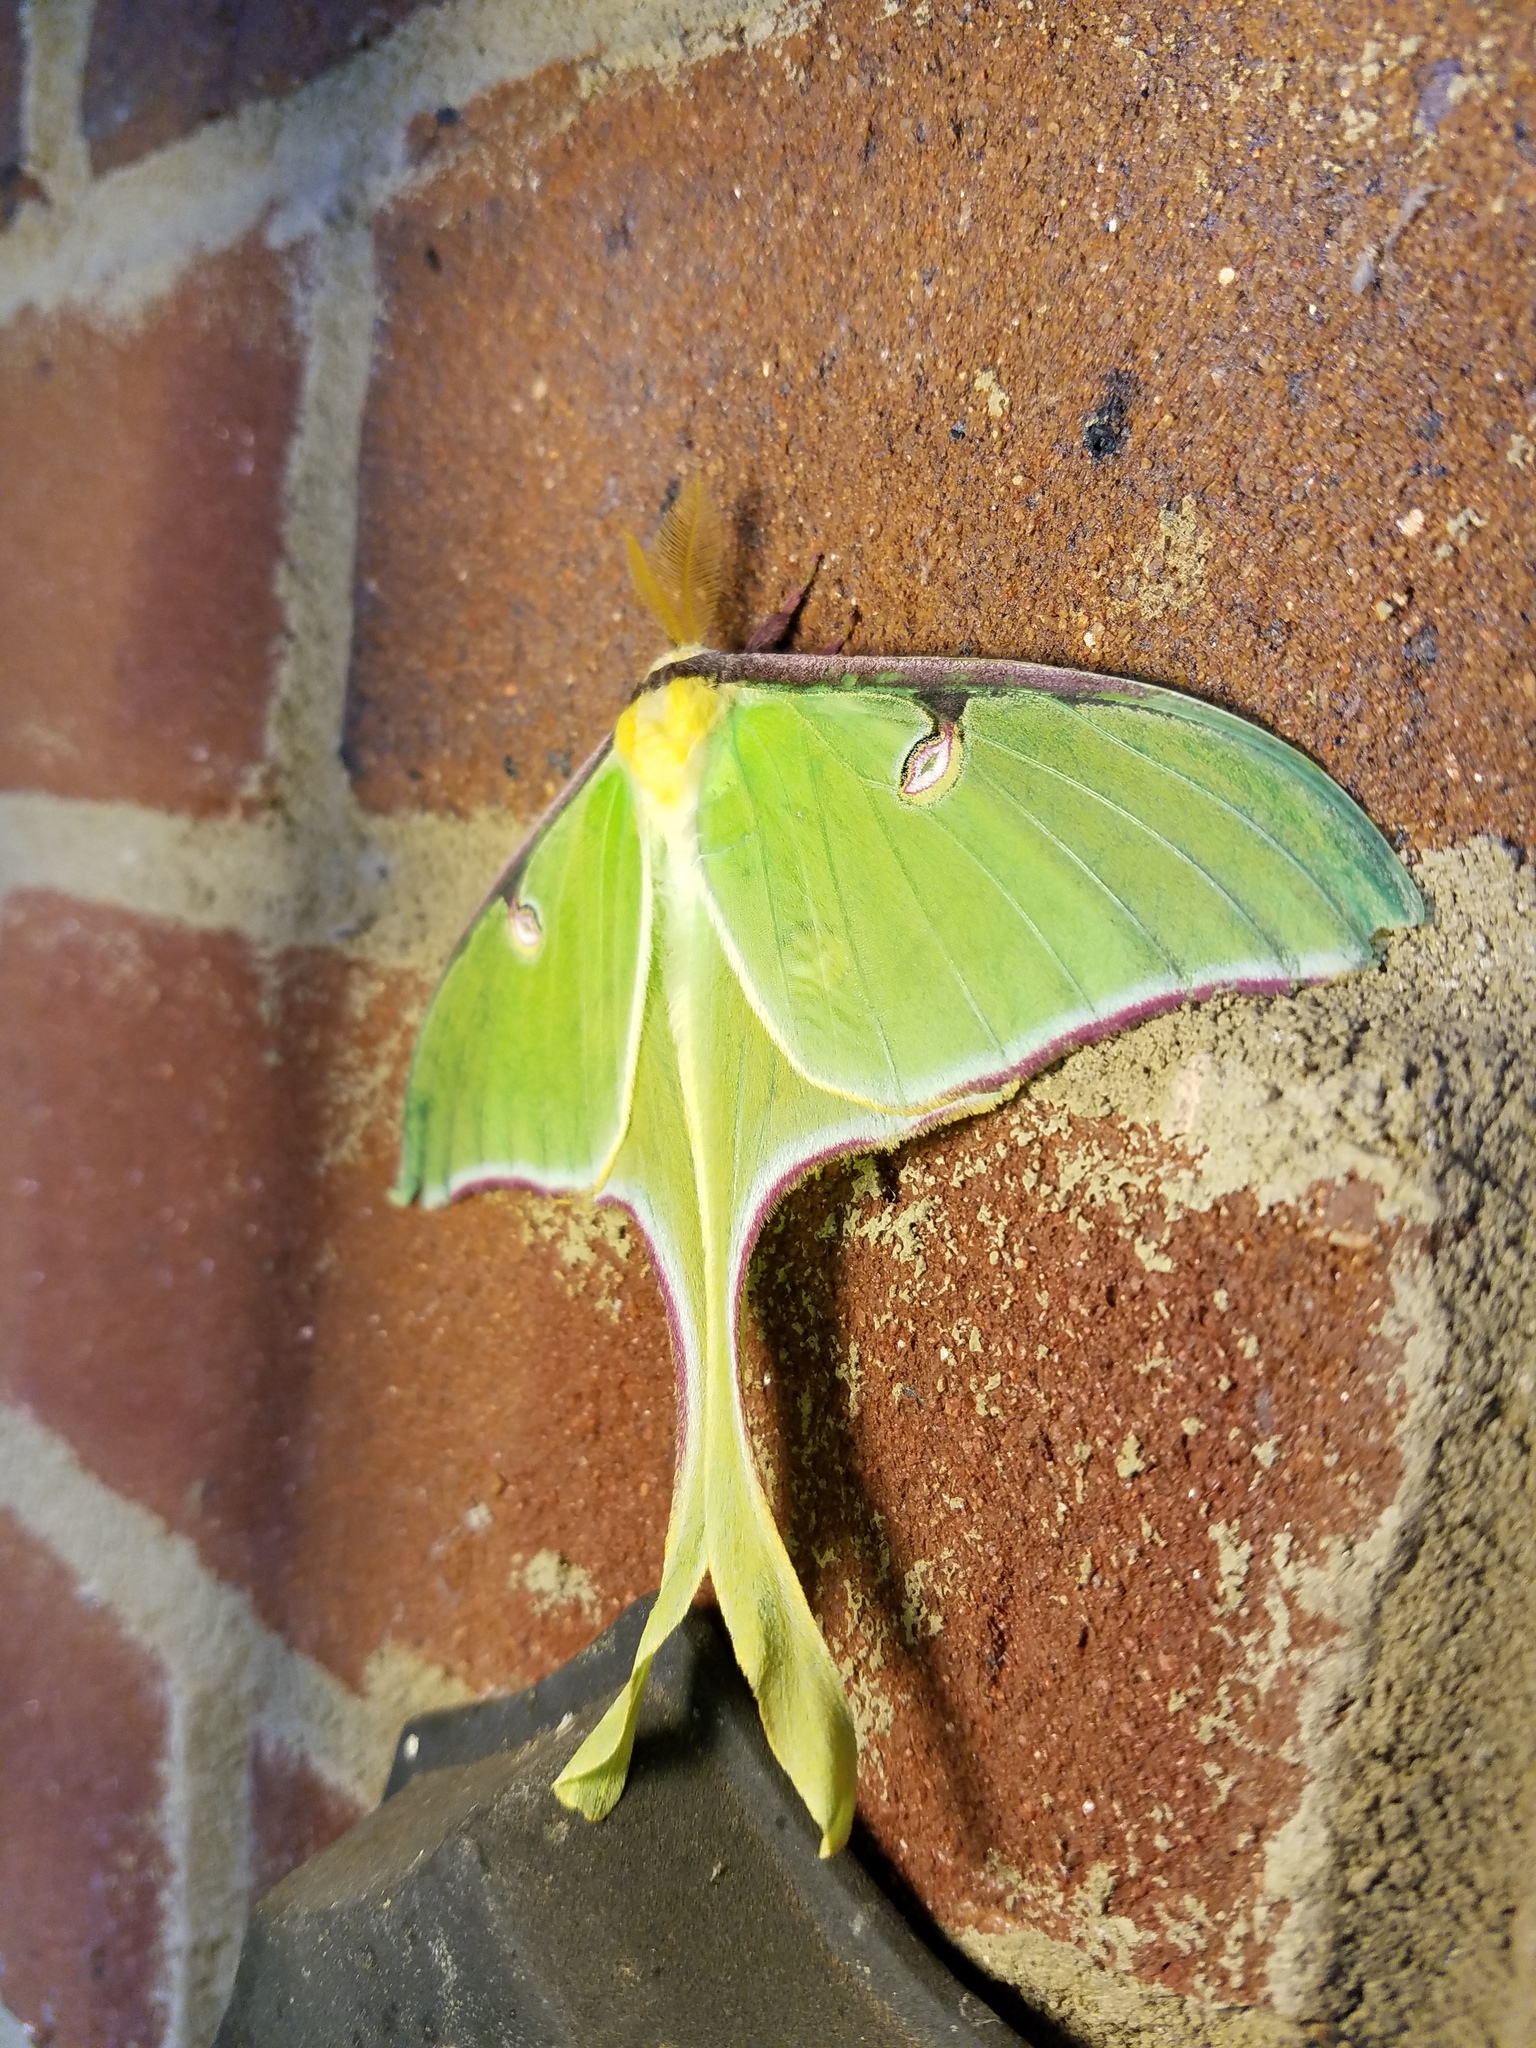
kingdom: Animalia
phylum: Arthropoda
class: Insecta
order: Lepidoptera
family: Saturniidae
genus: Actias
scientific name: Actias luna
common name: Luna moth
